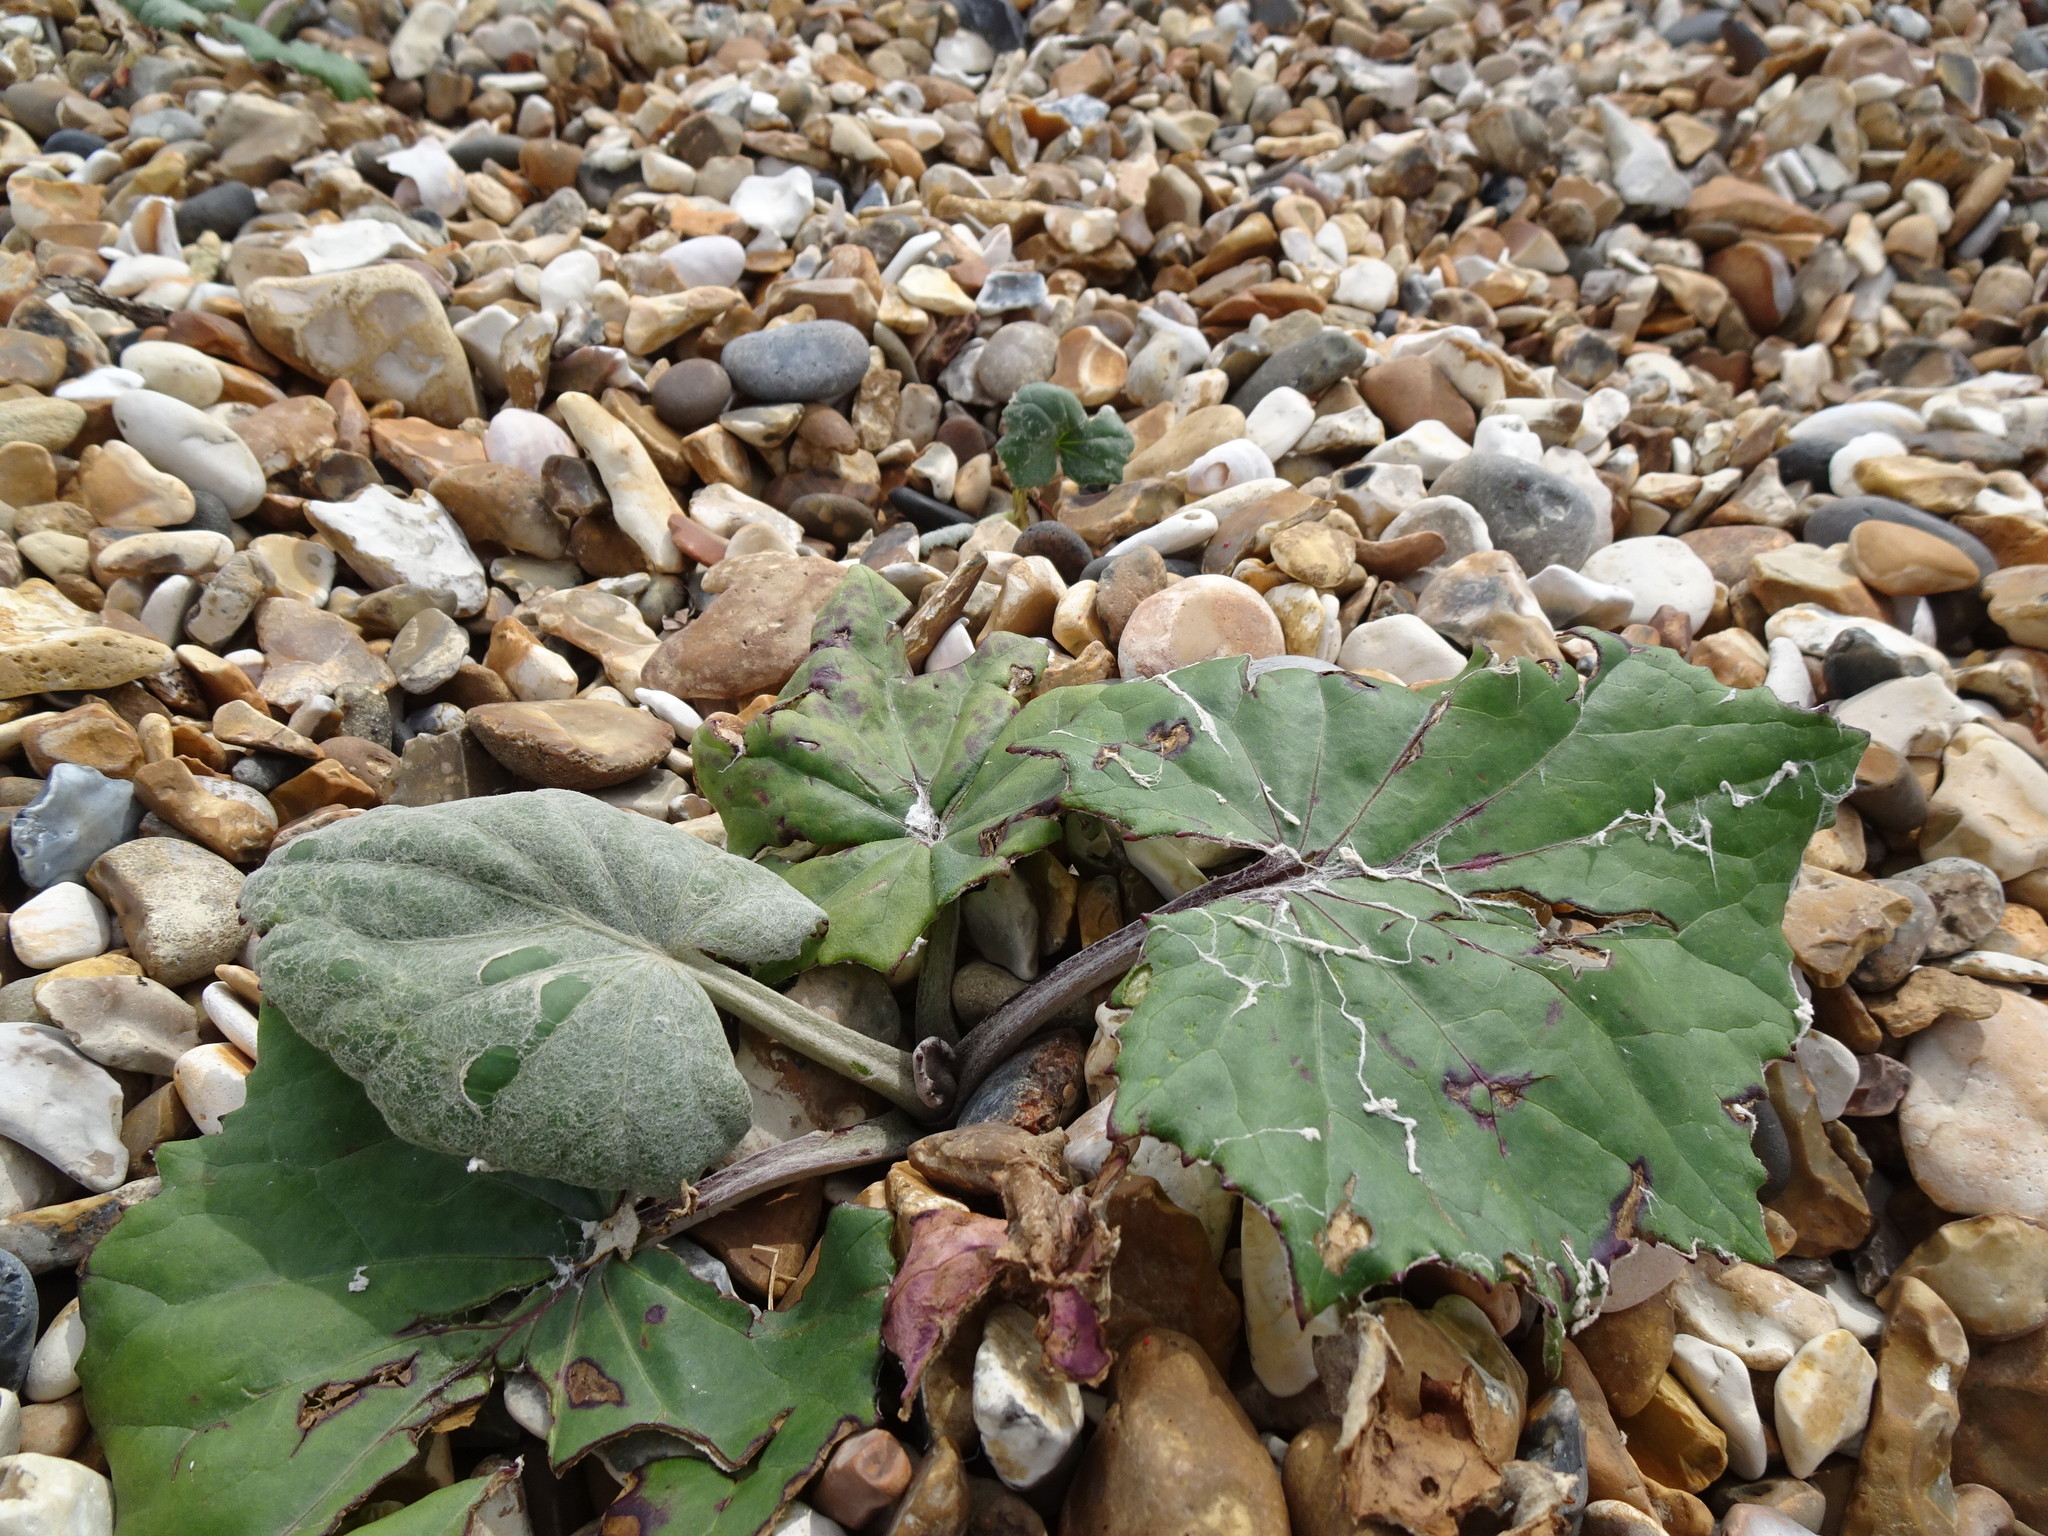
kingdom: Plantae
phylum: Tracheophyta
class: Magnoliopsida
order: Asterales
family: Asteraceae
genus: Tussilago
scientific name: Tussilago farfara
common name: Coltsfoot
